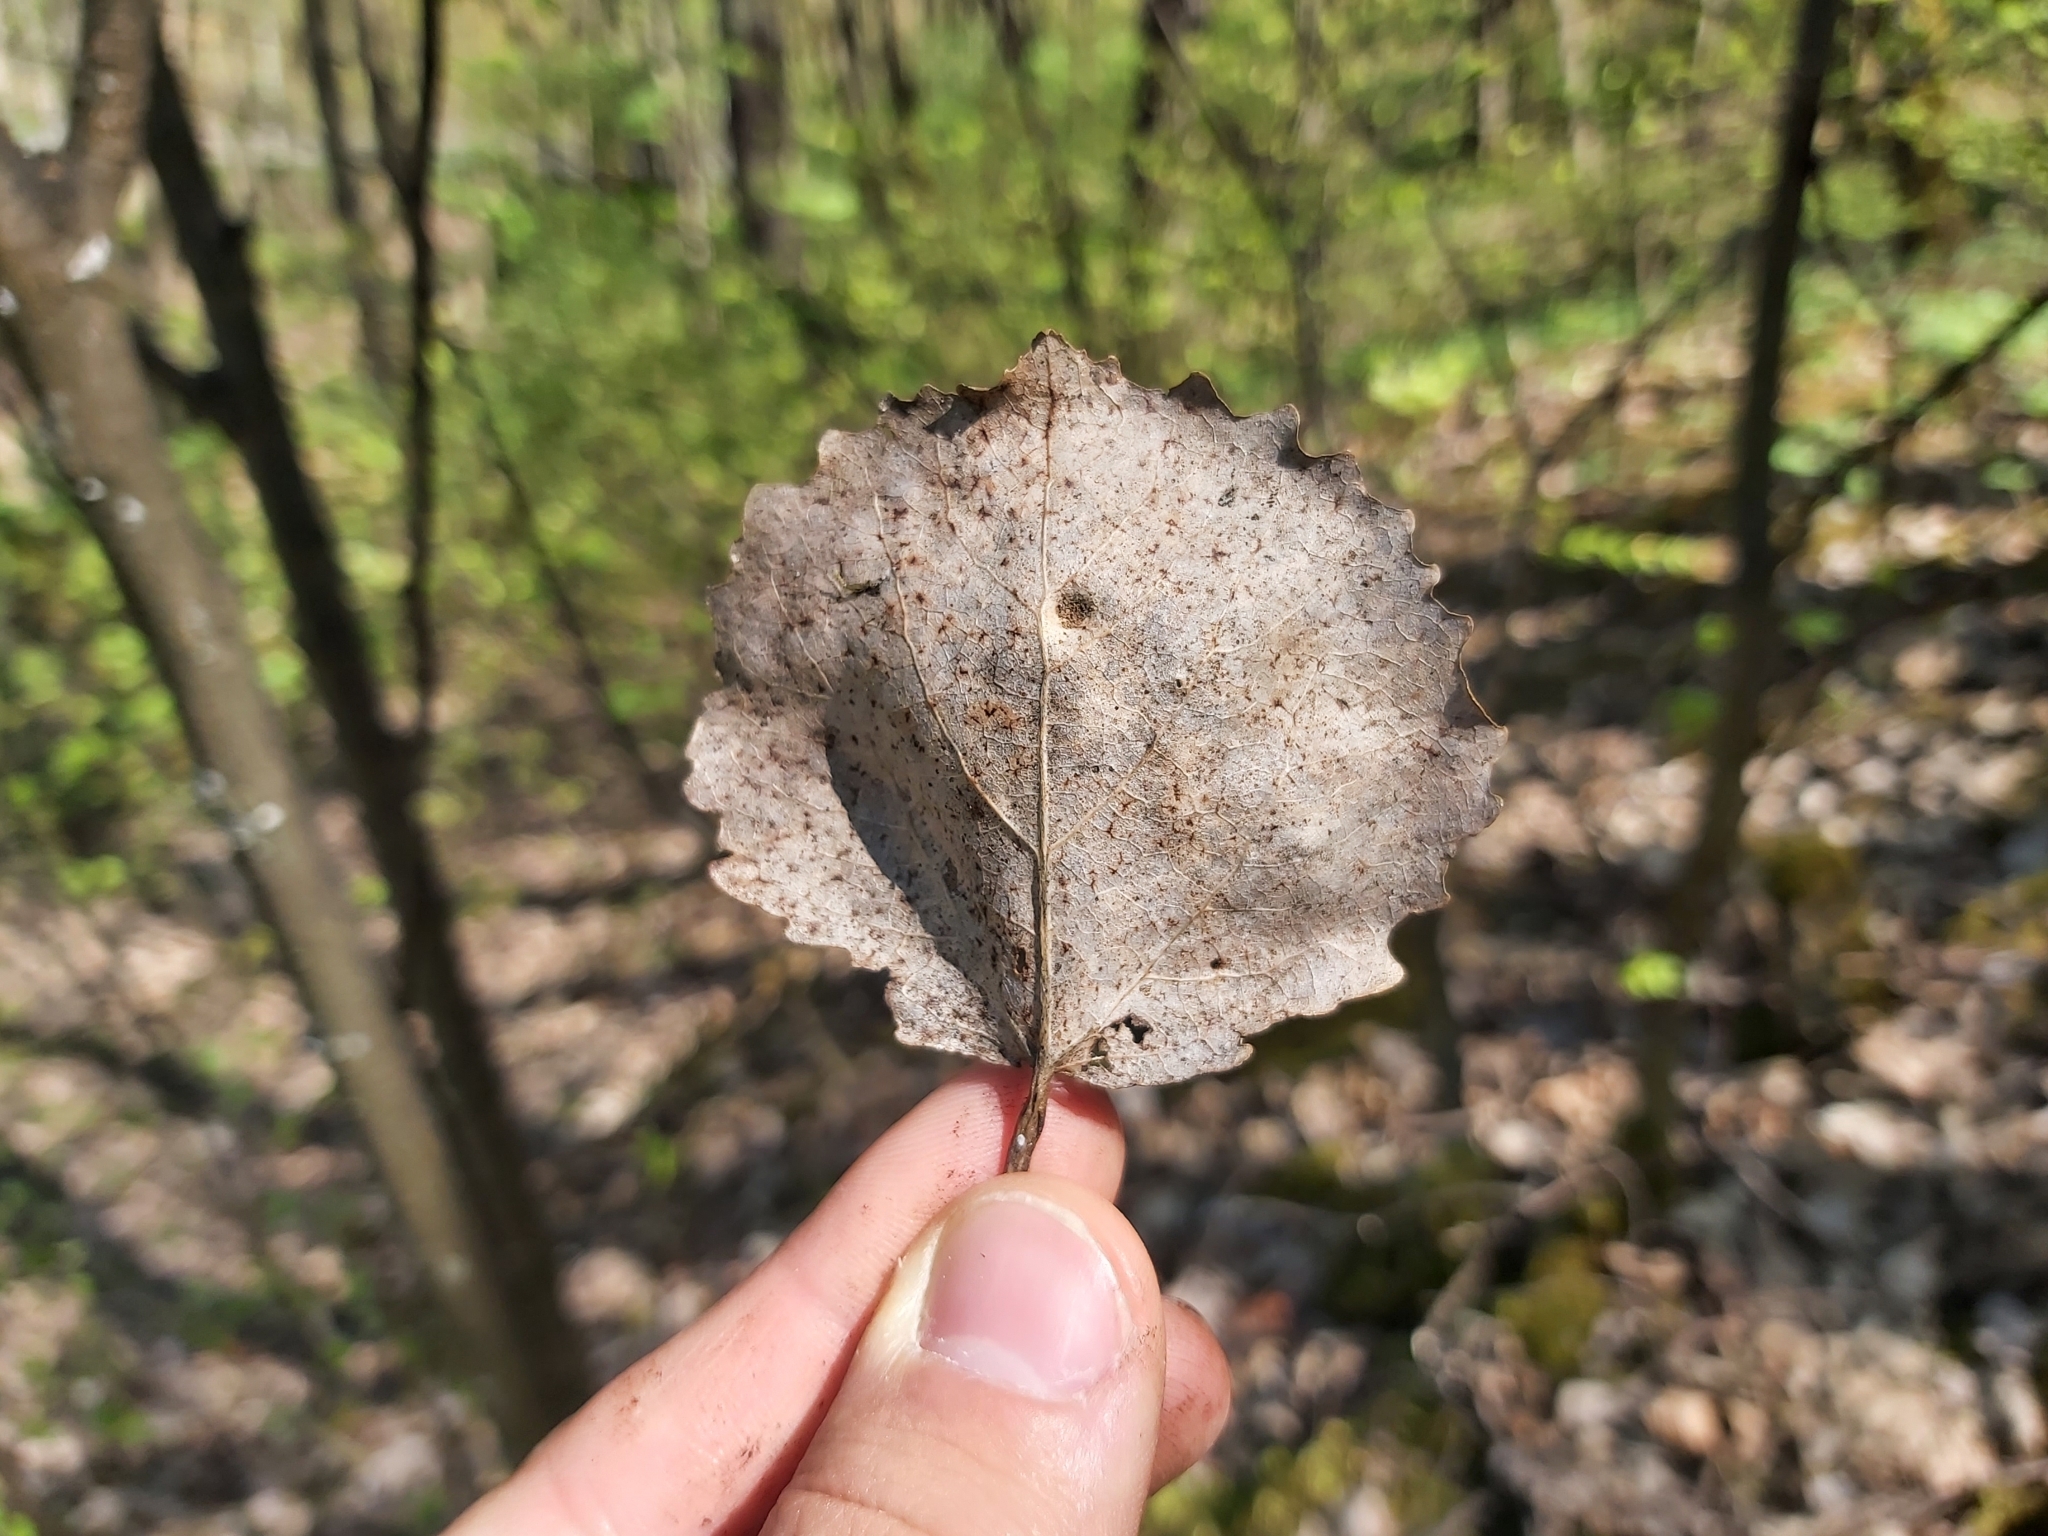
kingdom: Plantae
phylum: Tracheophyta
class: Magnoliopsida
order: Malpighiales
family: Salicaceae
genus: Populus
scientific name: Populus tremula
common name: European aspen
